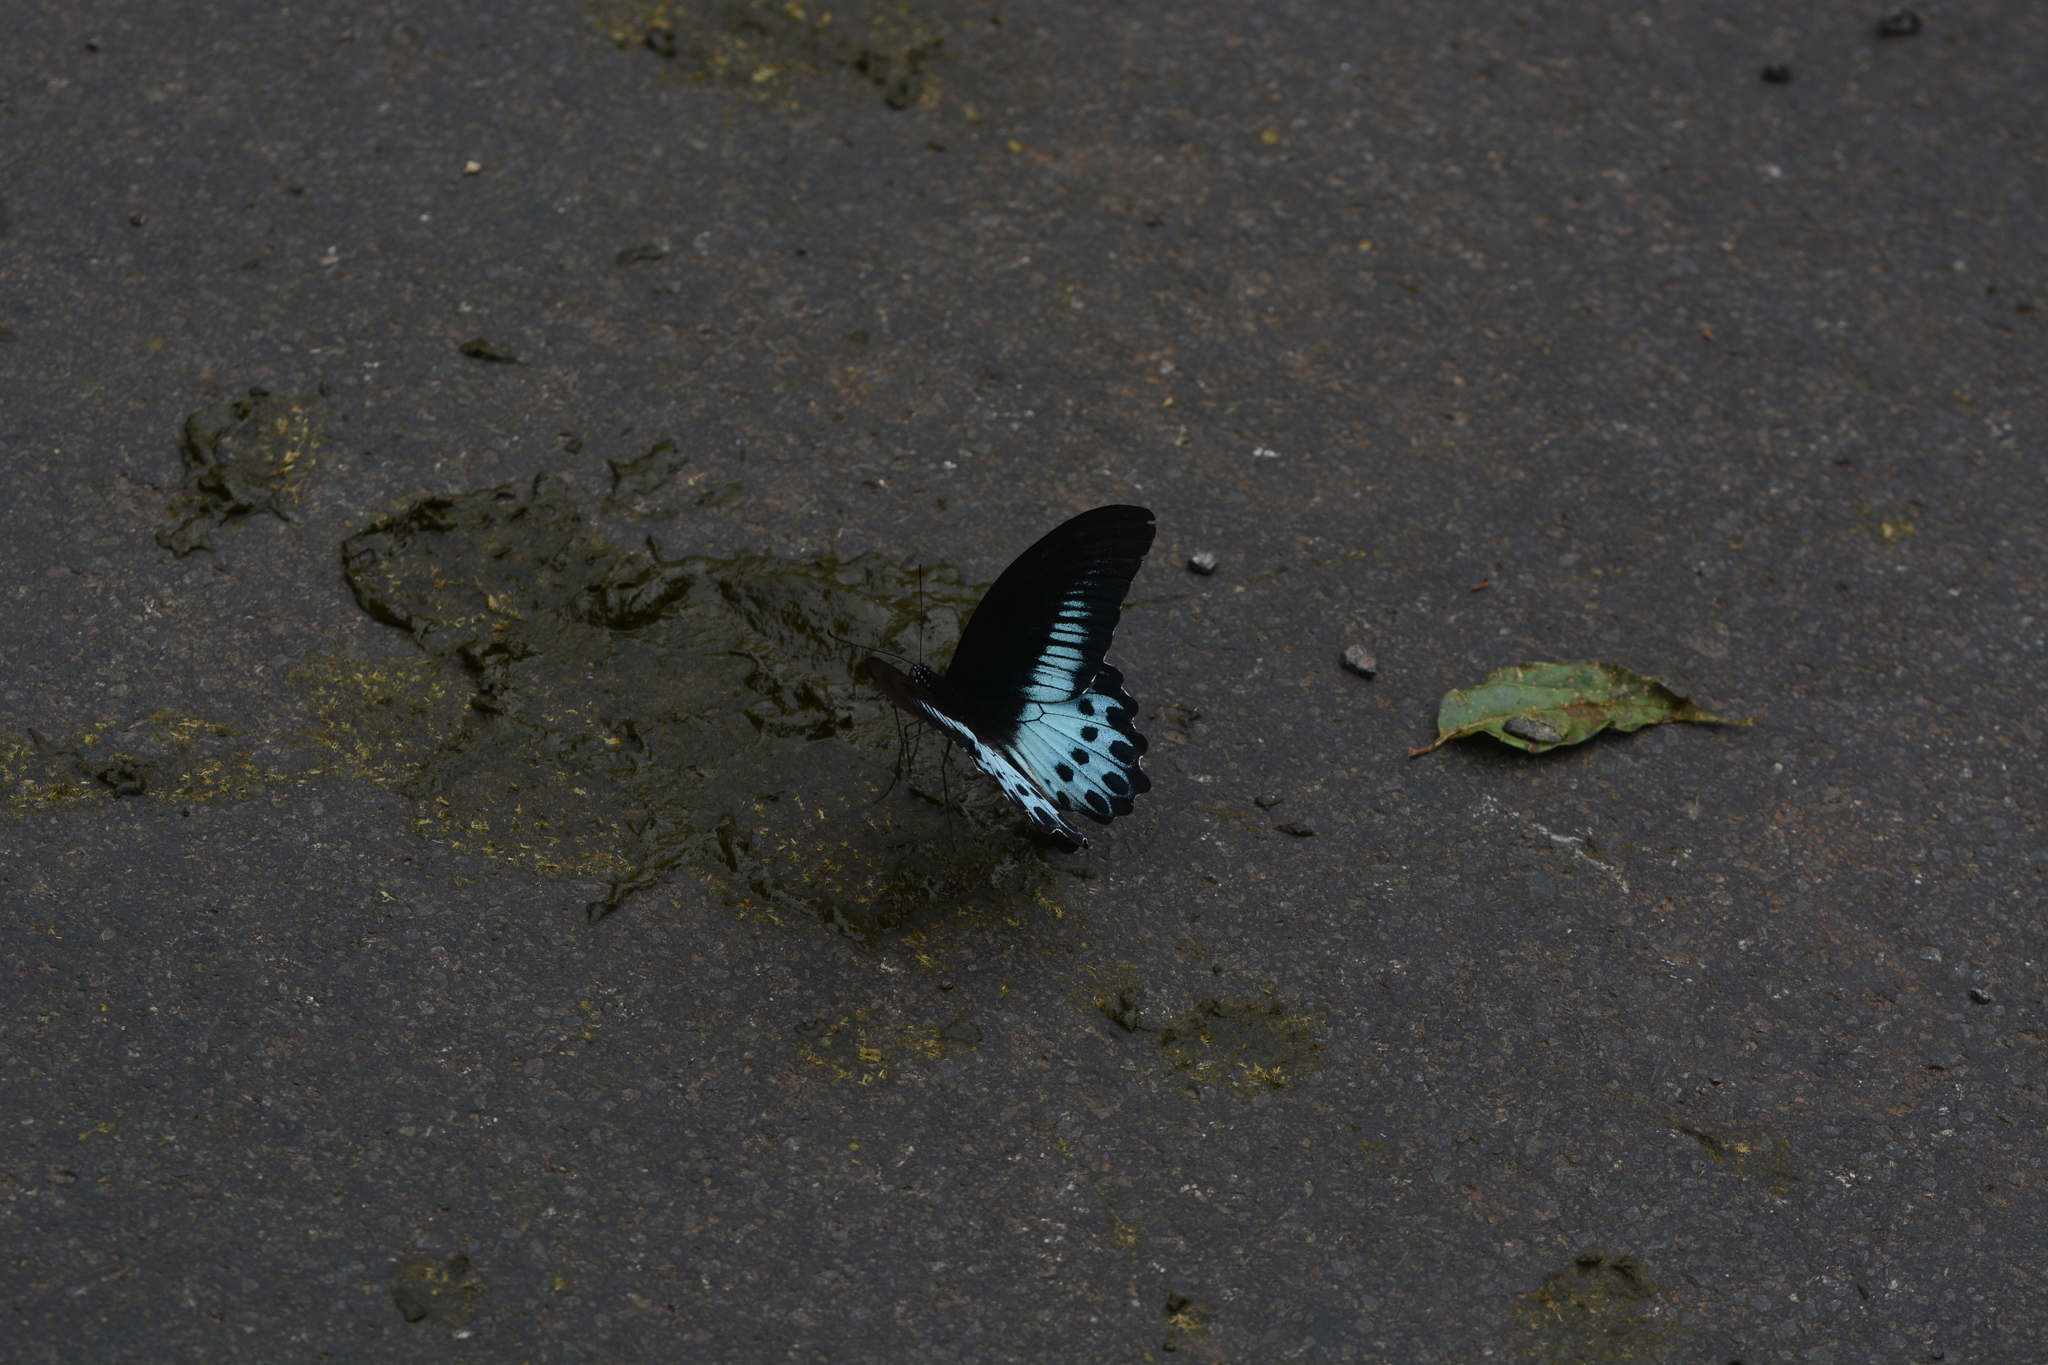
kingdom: Animalia
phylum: Arthropoda
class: Insecta
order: Lepidoptera
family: Papilionidae
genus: Papilio
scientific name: Papilio memnon
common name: Great mormon
